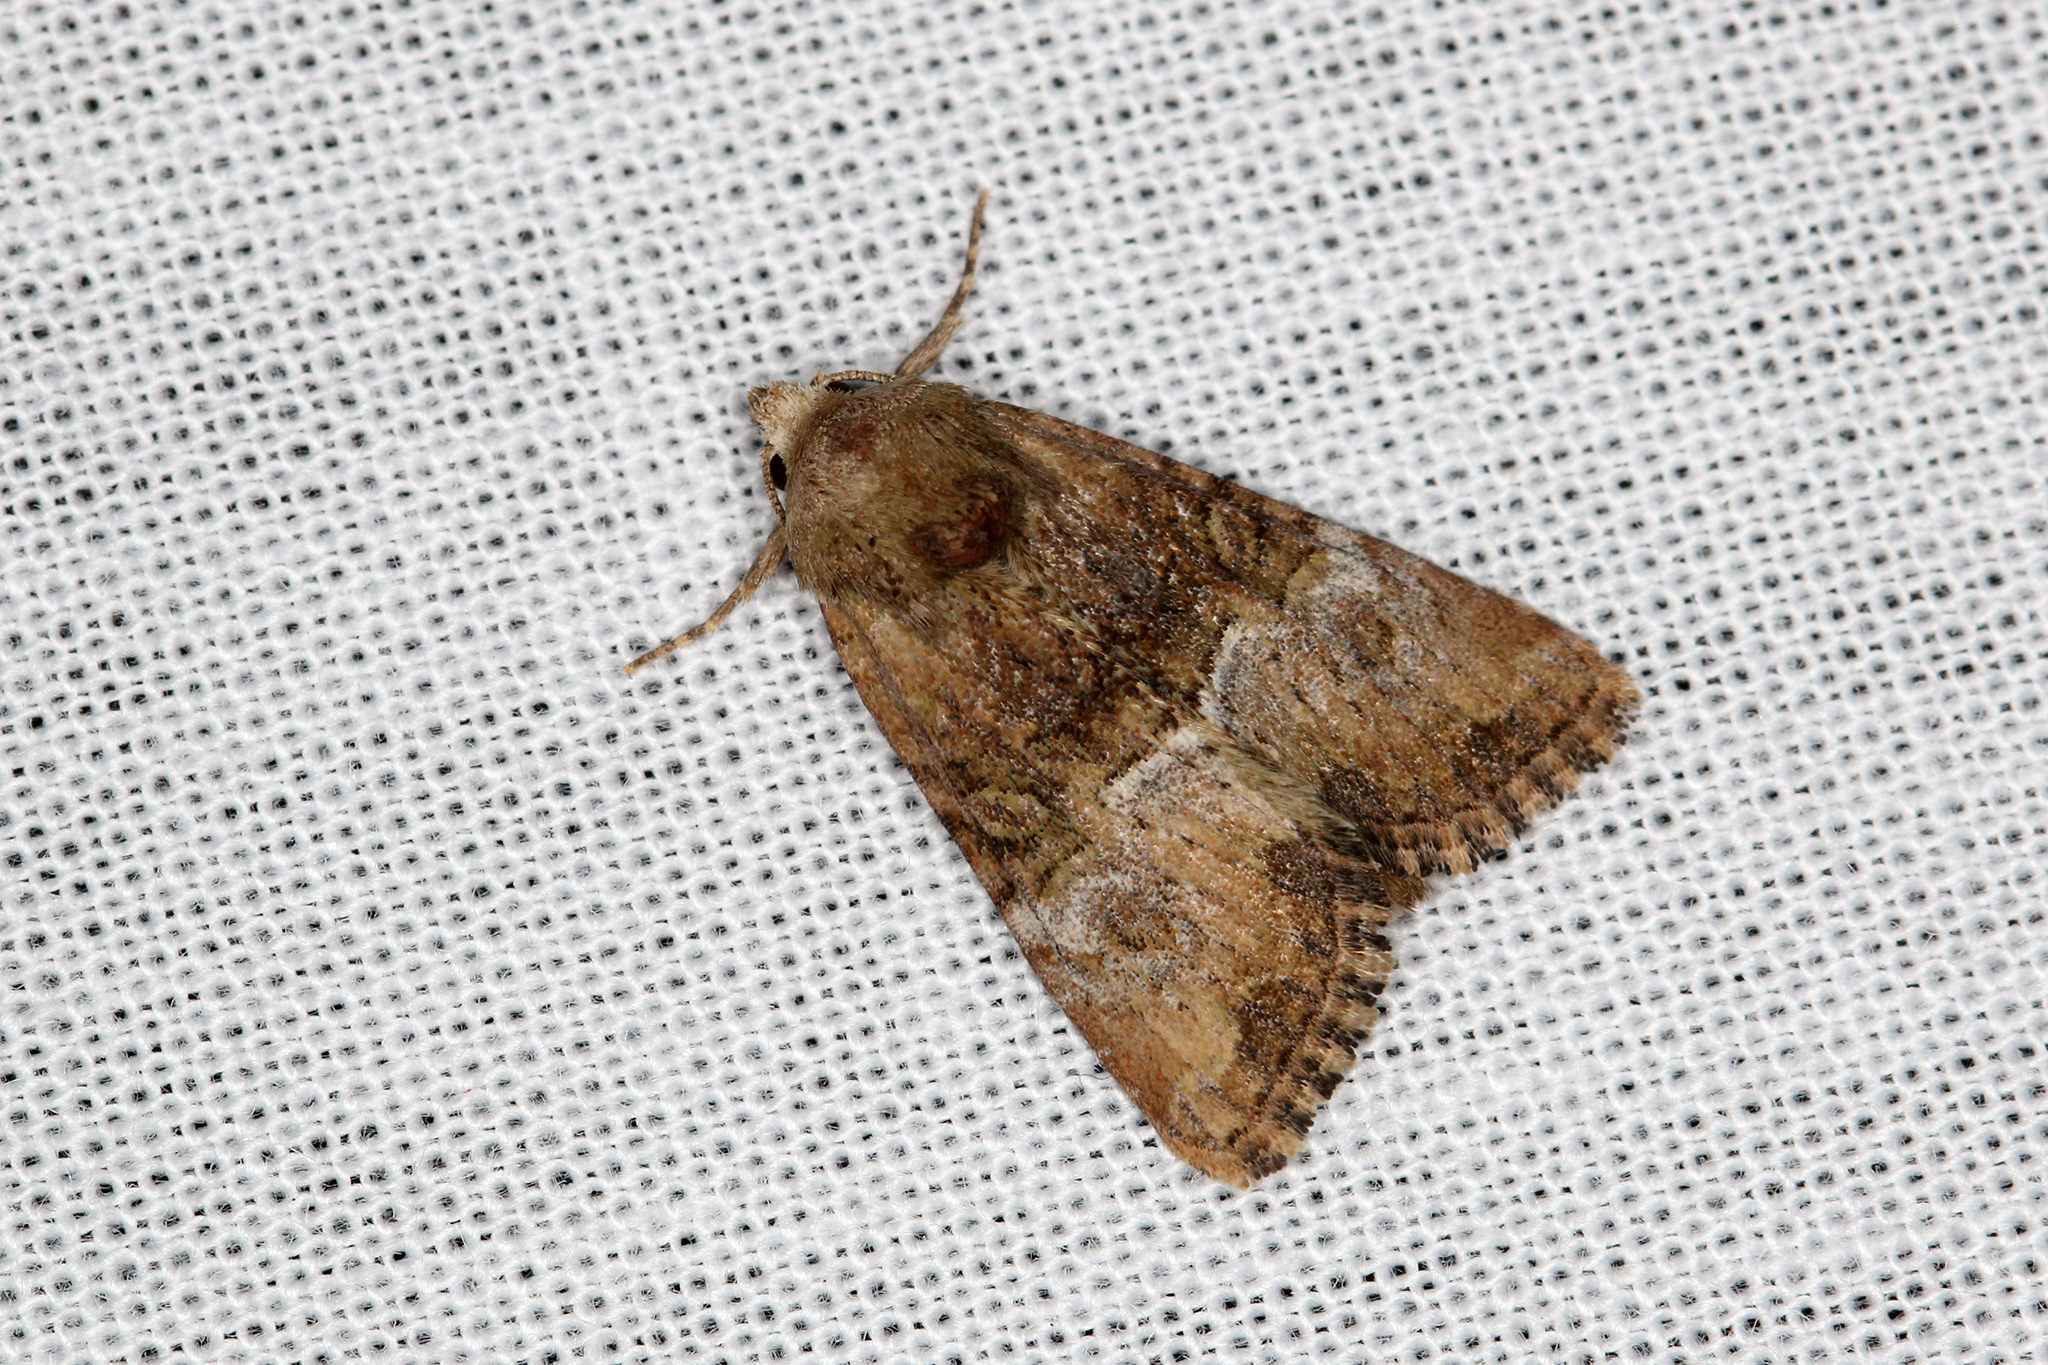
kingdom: Animalia
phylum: Arthropoda
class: Insecta
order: Lepidoptera
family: Noctuidae
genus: Mesoligia
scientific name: Mesoligia furuncula
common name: Cloaked minor
